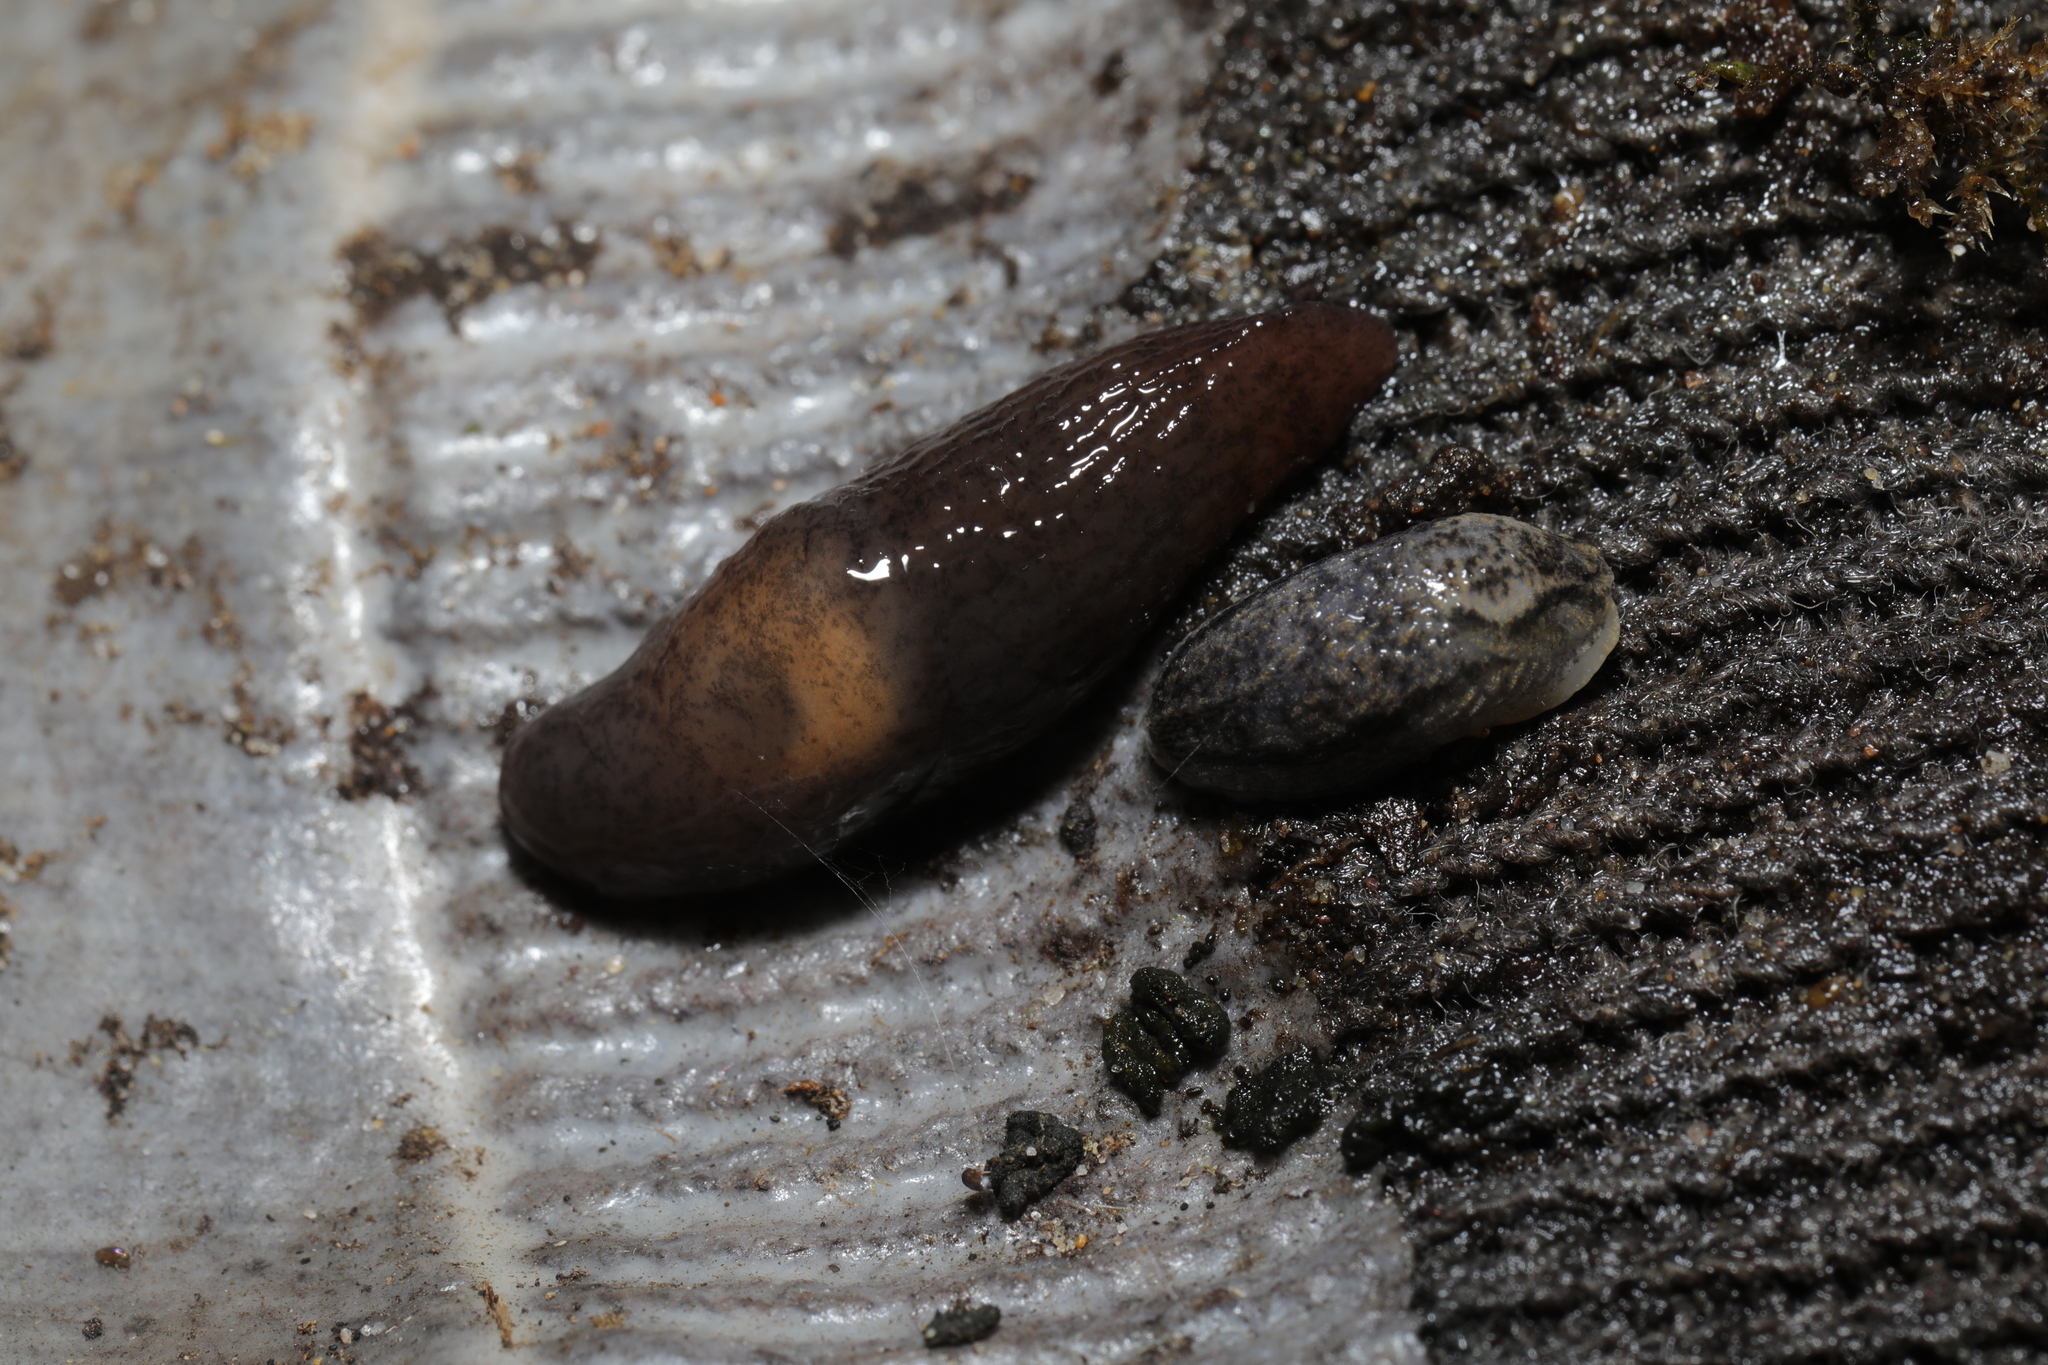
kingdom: Animalia
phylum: Mollusca
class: Gastropoda
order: Stylommatophora
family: Agriolimacidae
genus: Deroceras
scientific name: Deroceras invadens
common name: Caruana's slug
